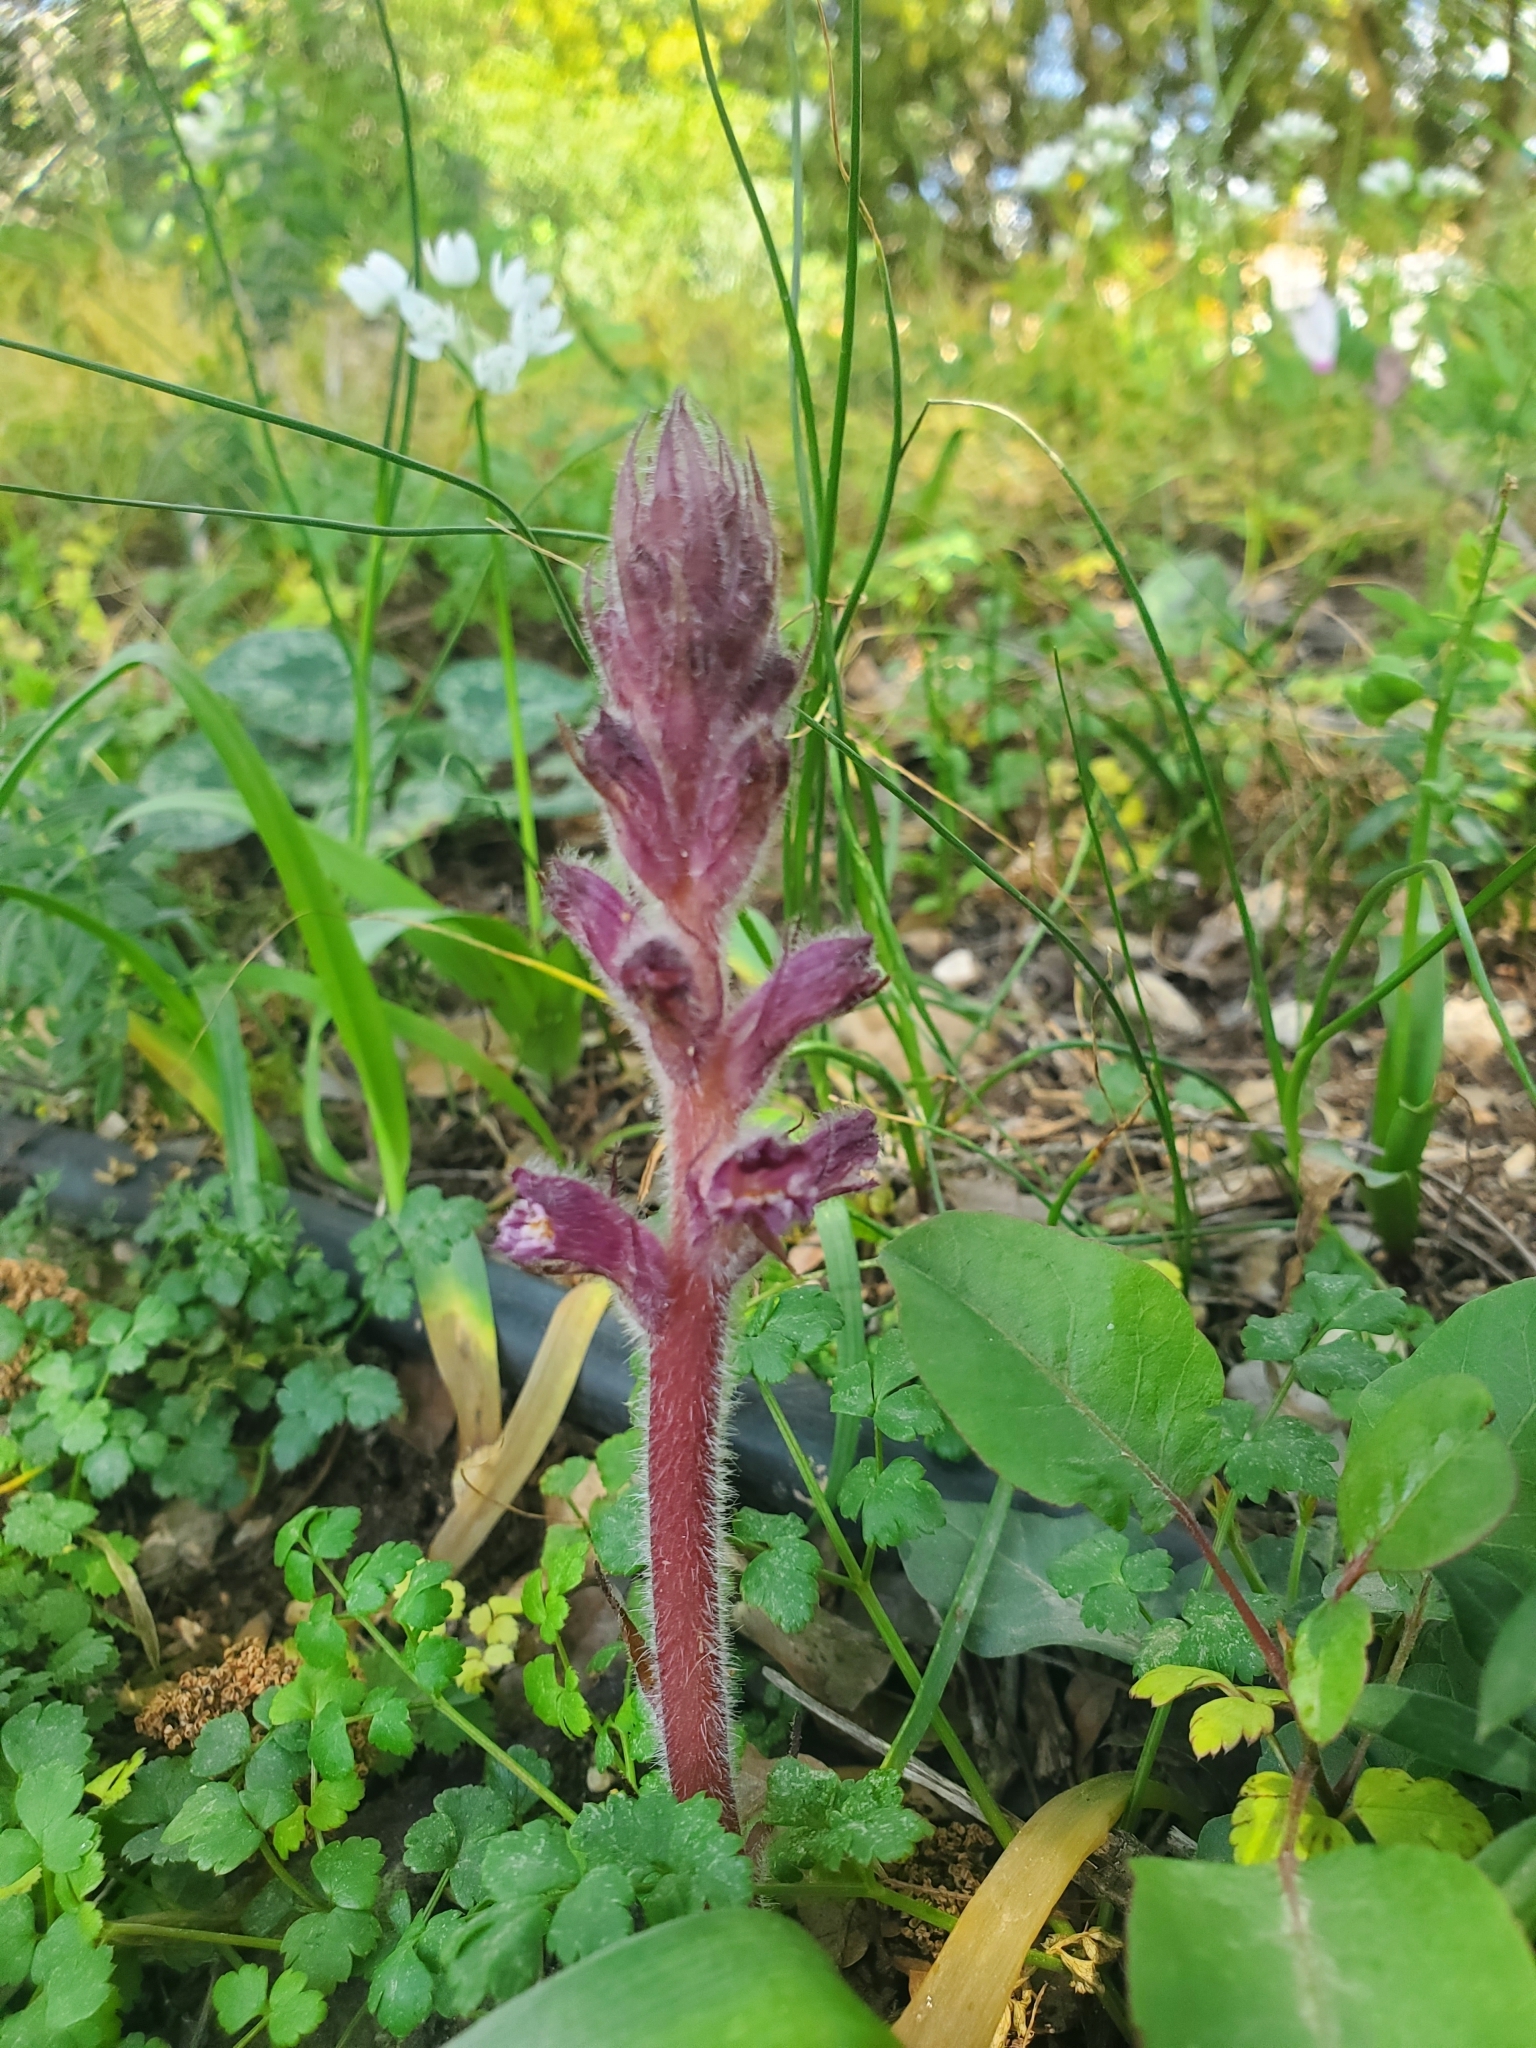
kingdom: Plantae
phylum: Tracheophyta
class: Magnoliopsida
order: Lamiales
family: Orobanchaceae
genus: Orobanche
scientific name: Orobanche pubescens
